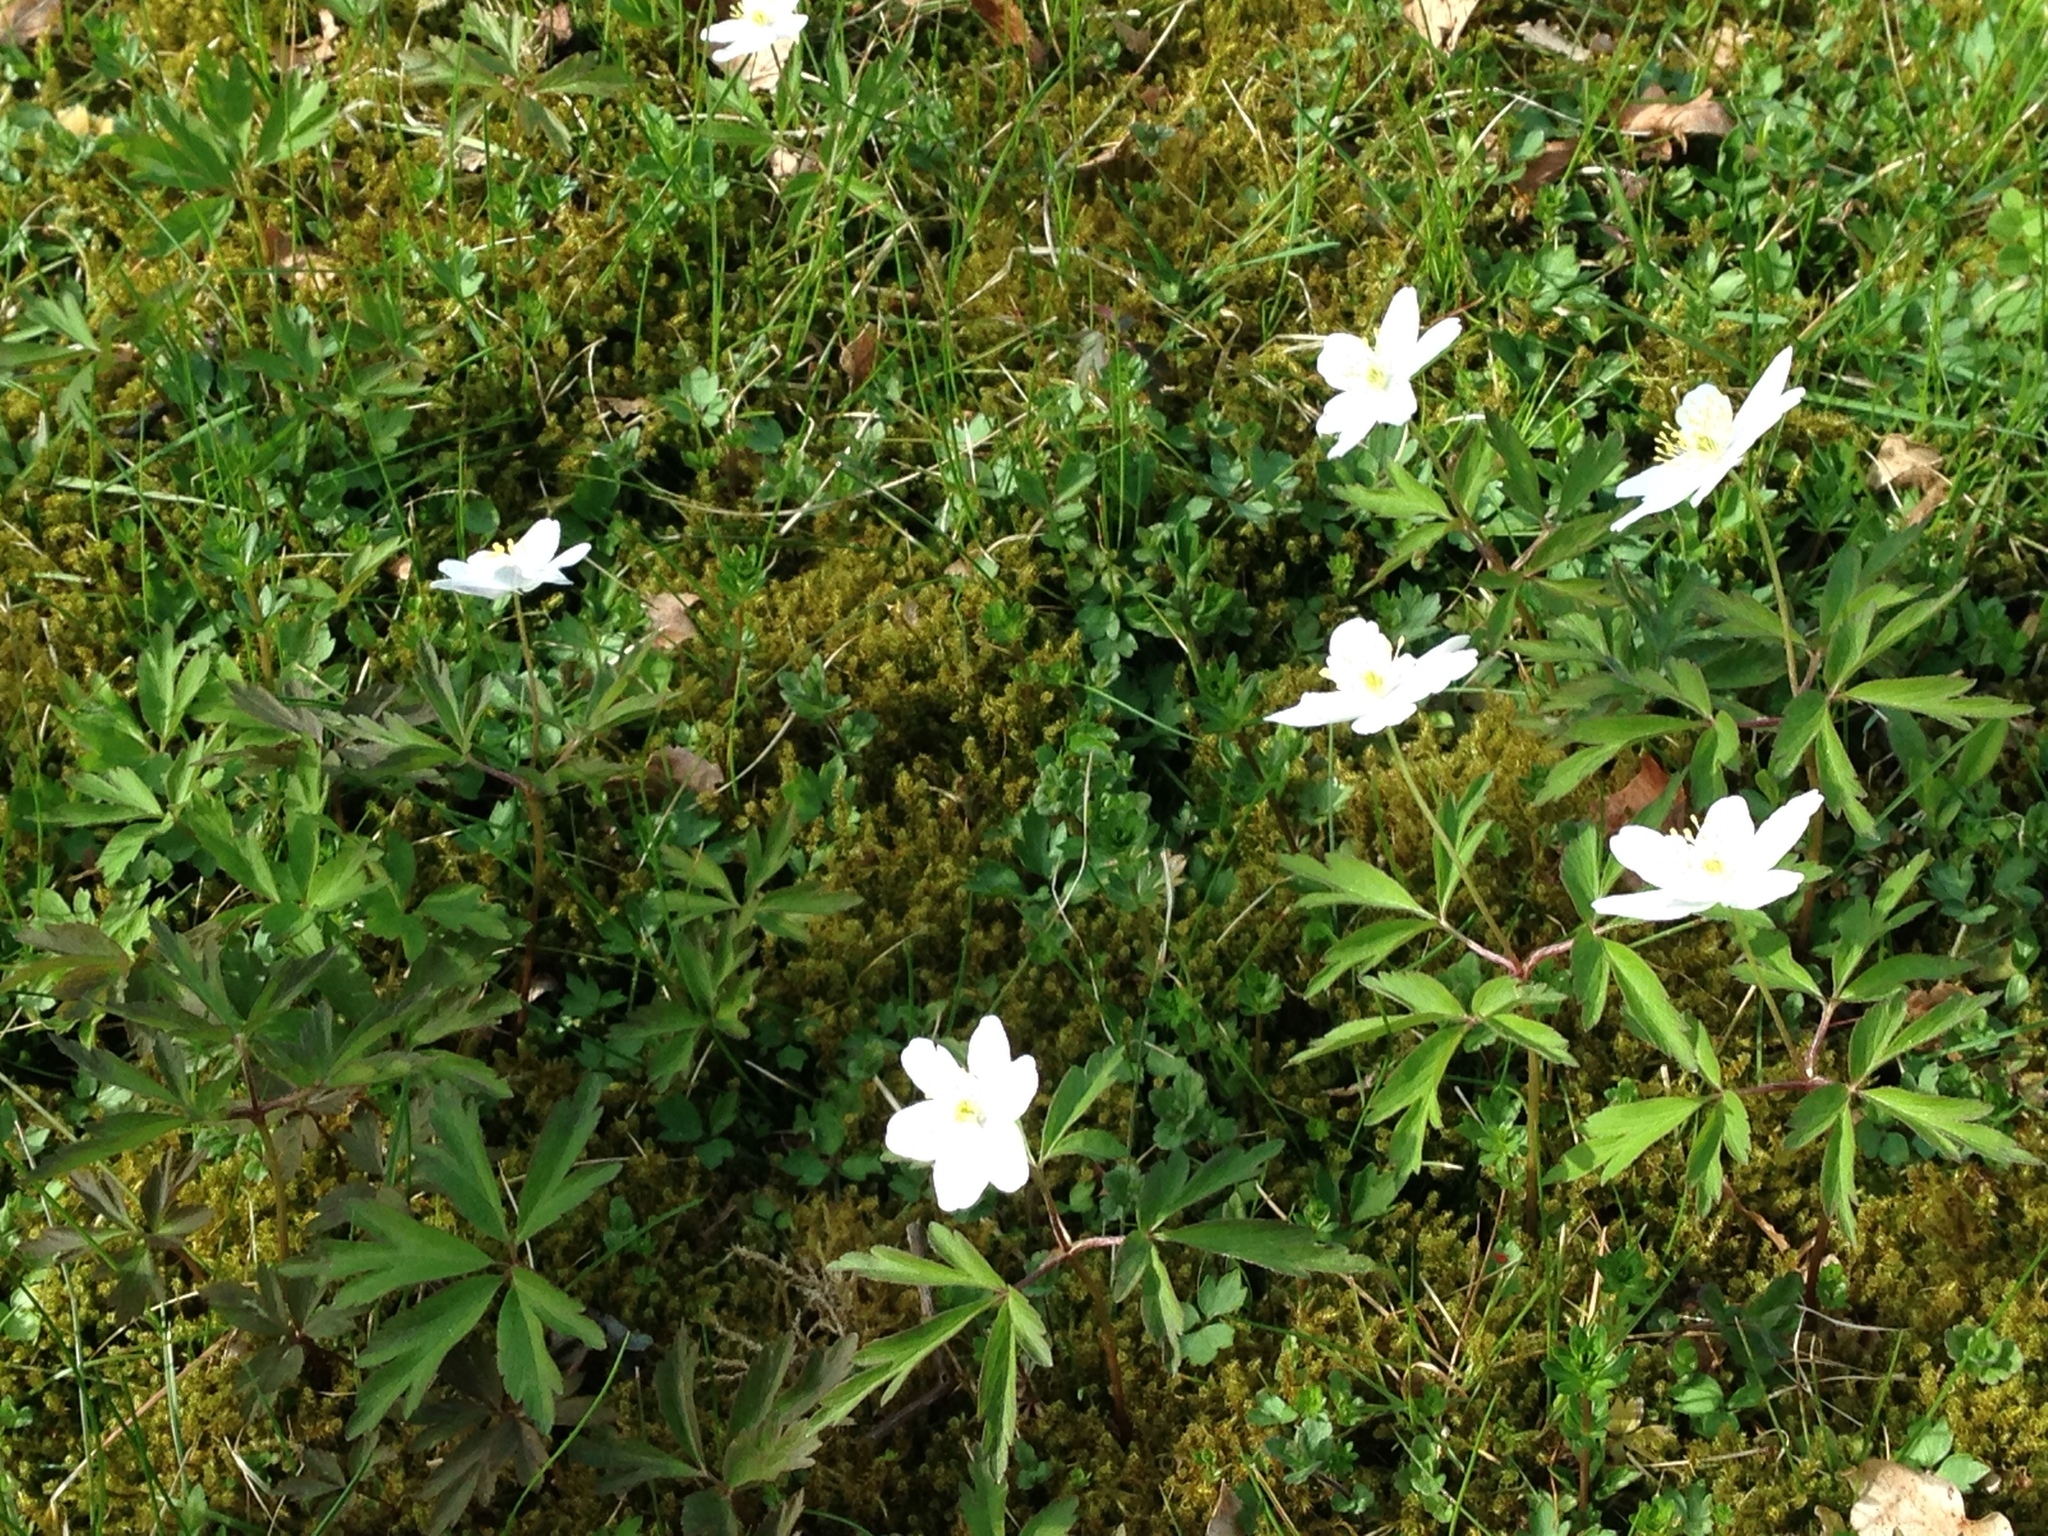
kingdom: Plantae
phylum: Tracheophyta
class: Magnoliopsida
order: Ranunculales
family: Ranunculaceae
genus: Anemone
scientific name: Anemone nemorosa
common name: Wood anemone
